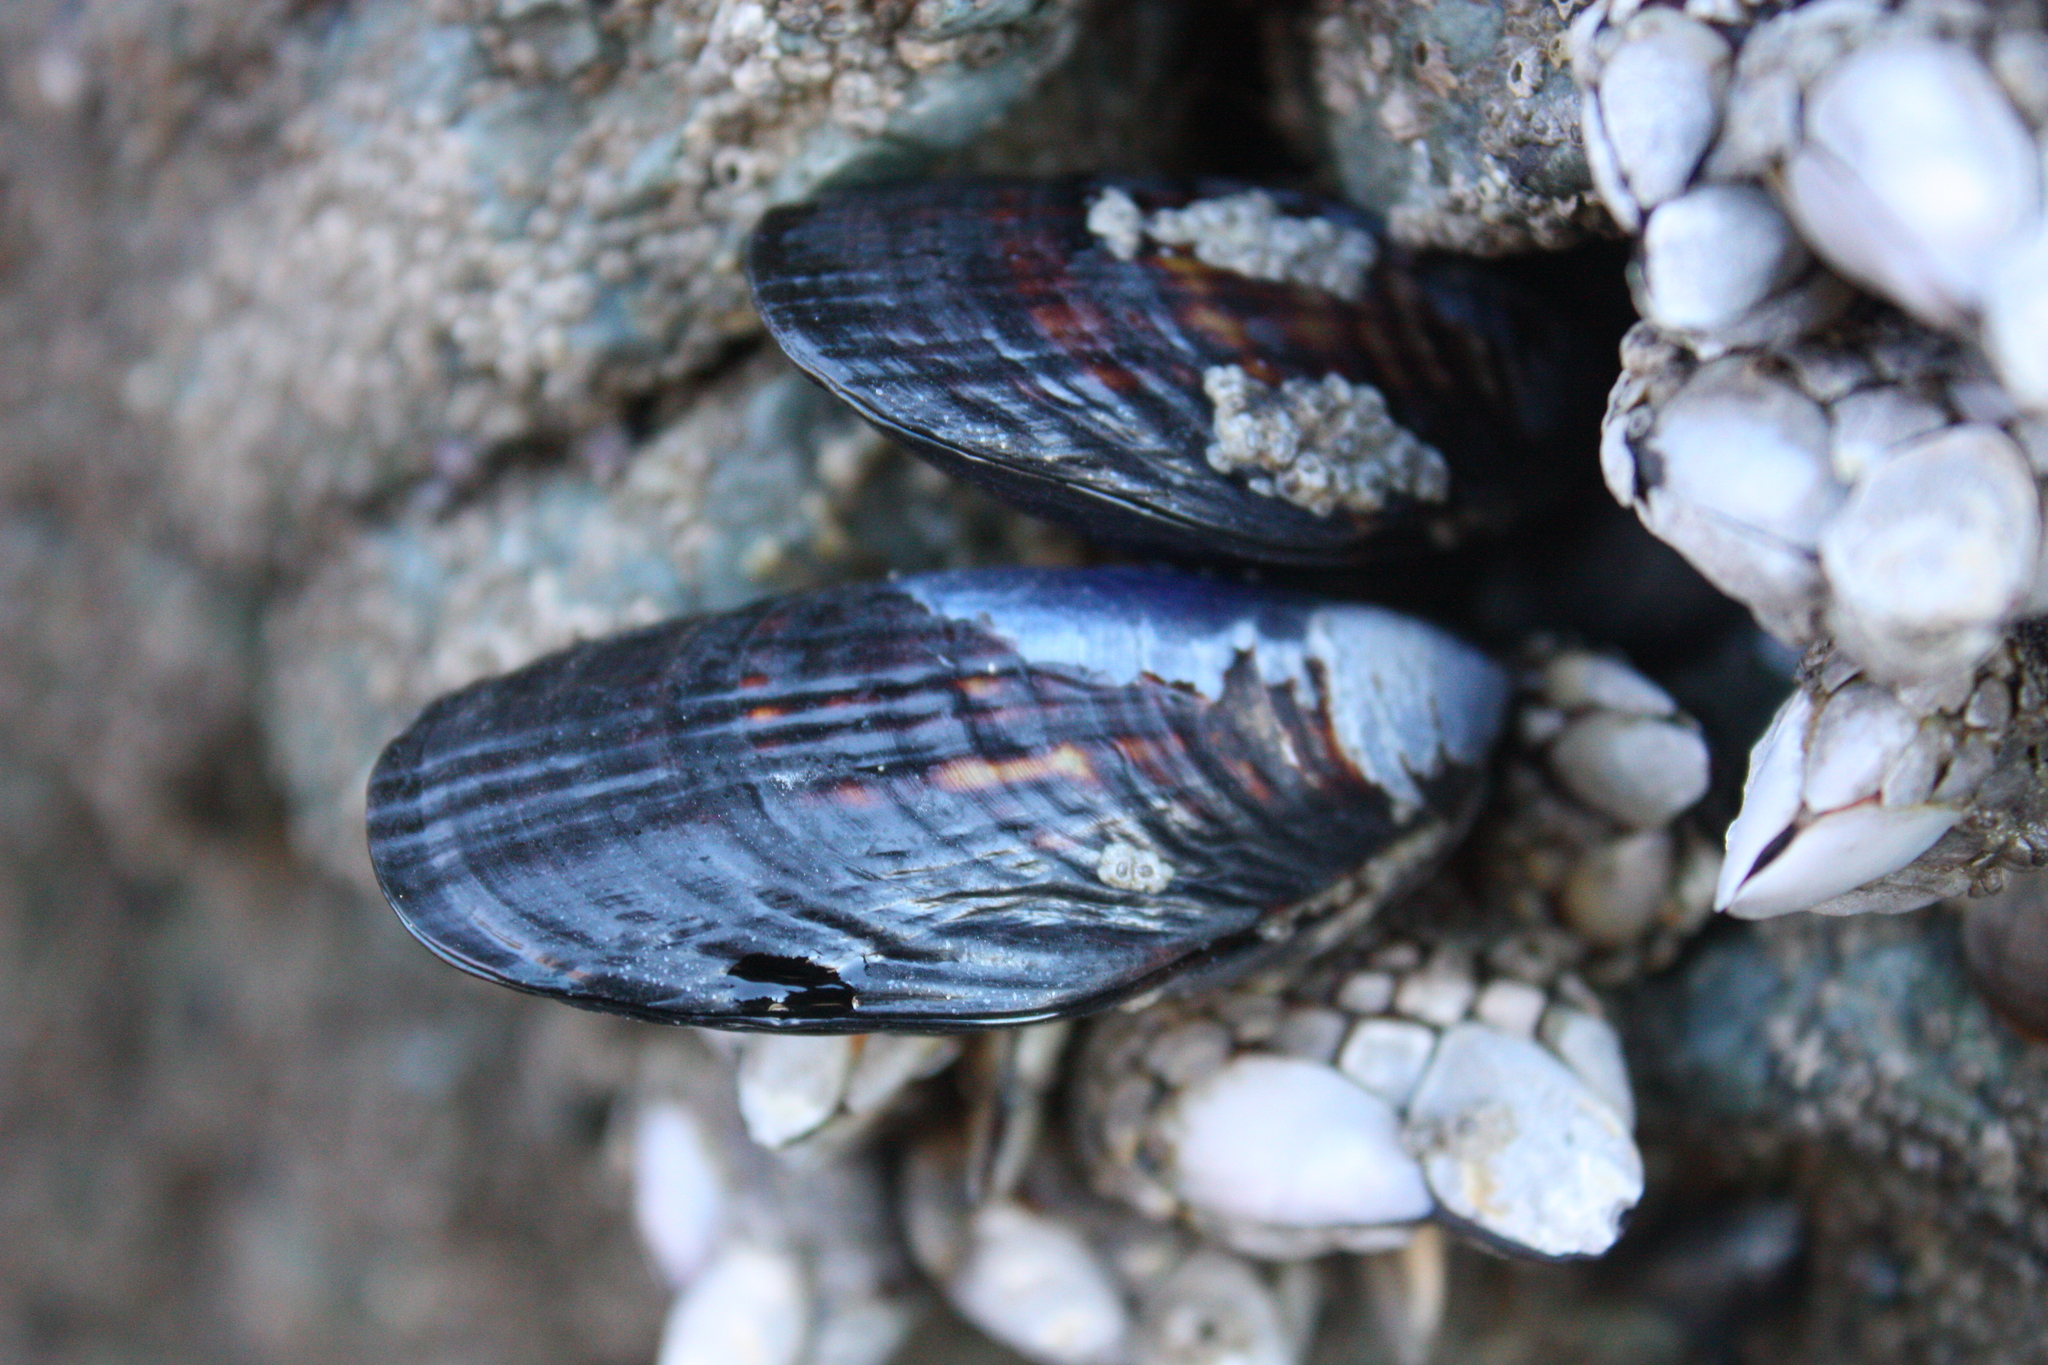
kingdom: Animalia
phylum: Mollusca
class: Bivalvia
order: Mytilida
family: Mytilidae
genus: Mytilus
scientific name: Mytilus californianus
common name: California mussel
